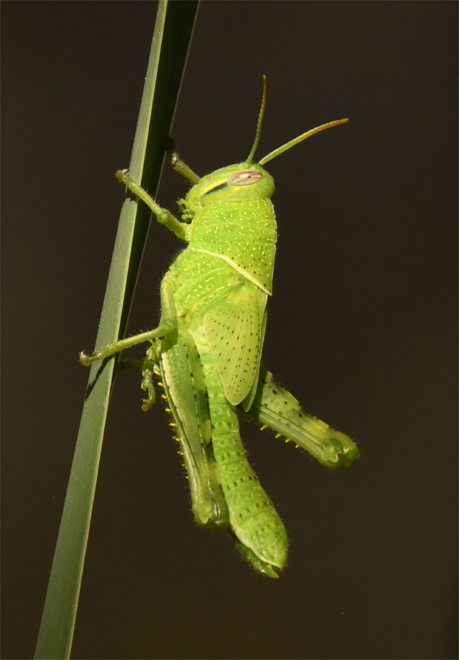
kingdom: Animalia
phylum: Arthropoda
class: Insecta
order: Orthoptera
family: Acrididae
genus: Schistocerca
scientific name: Schistocerca nitens
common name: Vagrant grasshopper
